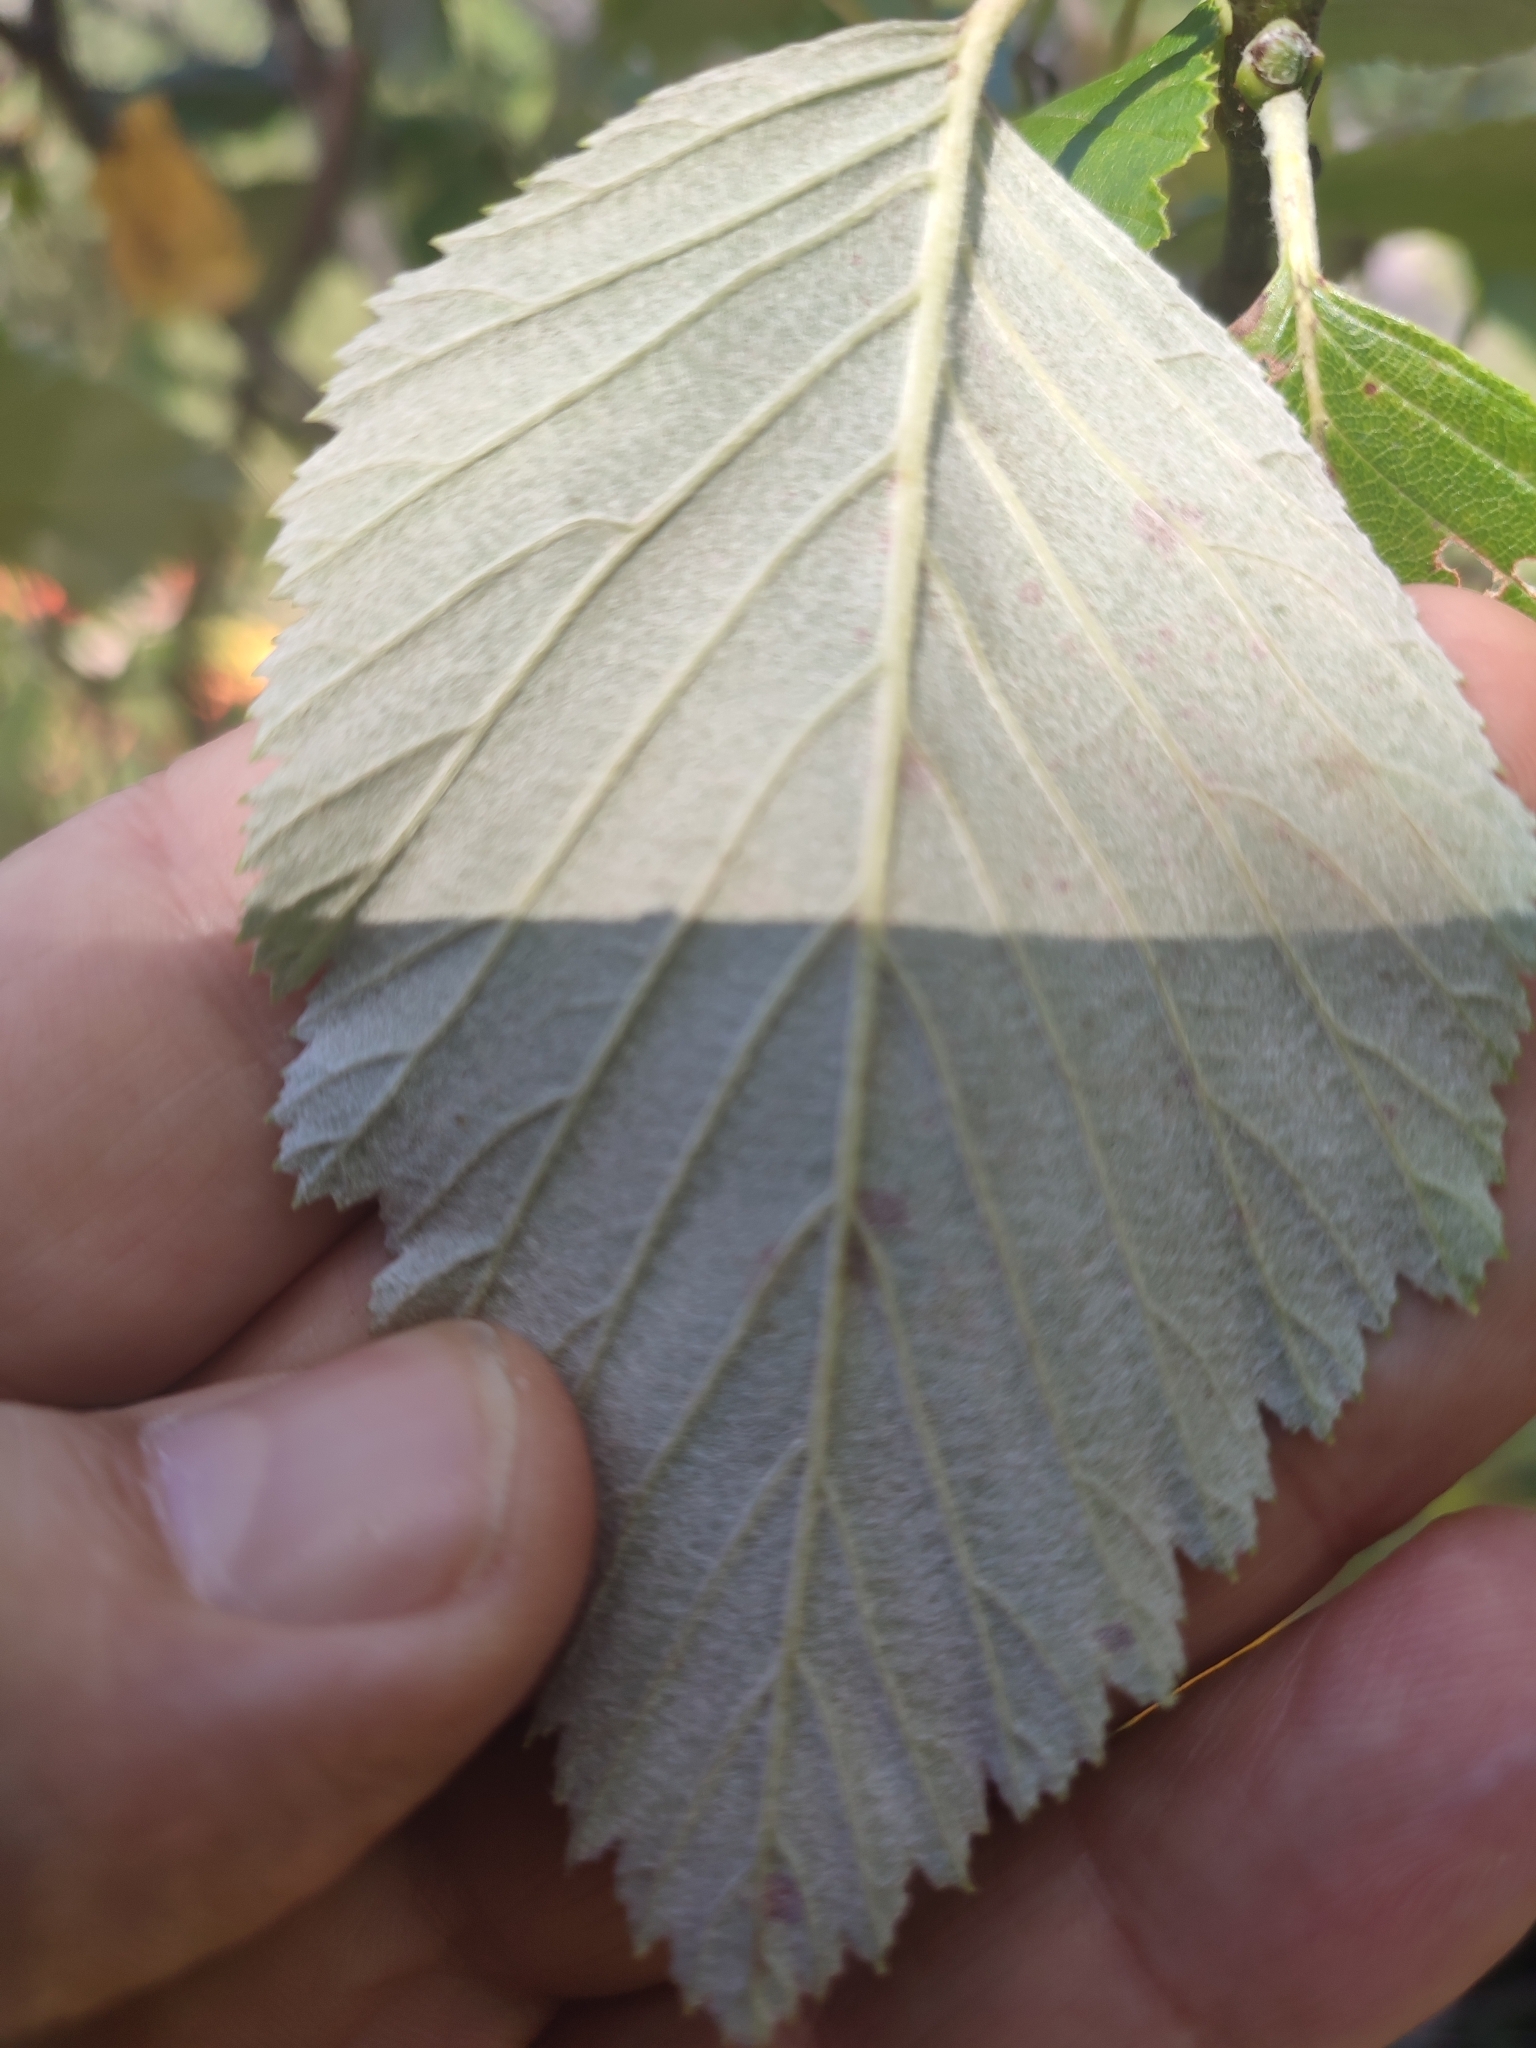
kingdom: Plantae
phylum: Tracheophyta
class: Magnoliopsida
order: Rosales
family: Rosaceae
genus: Aria
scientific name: Aria edulis
